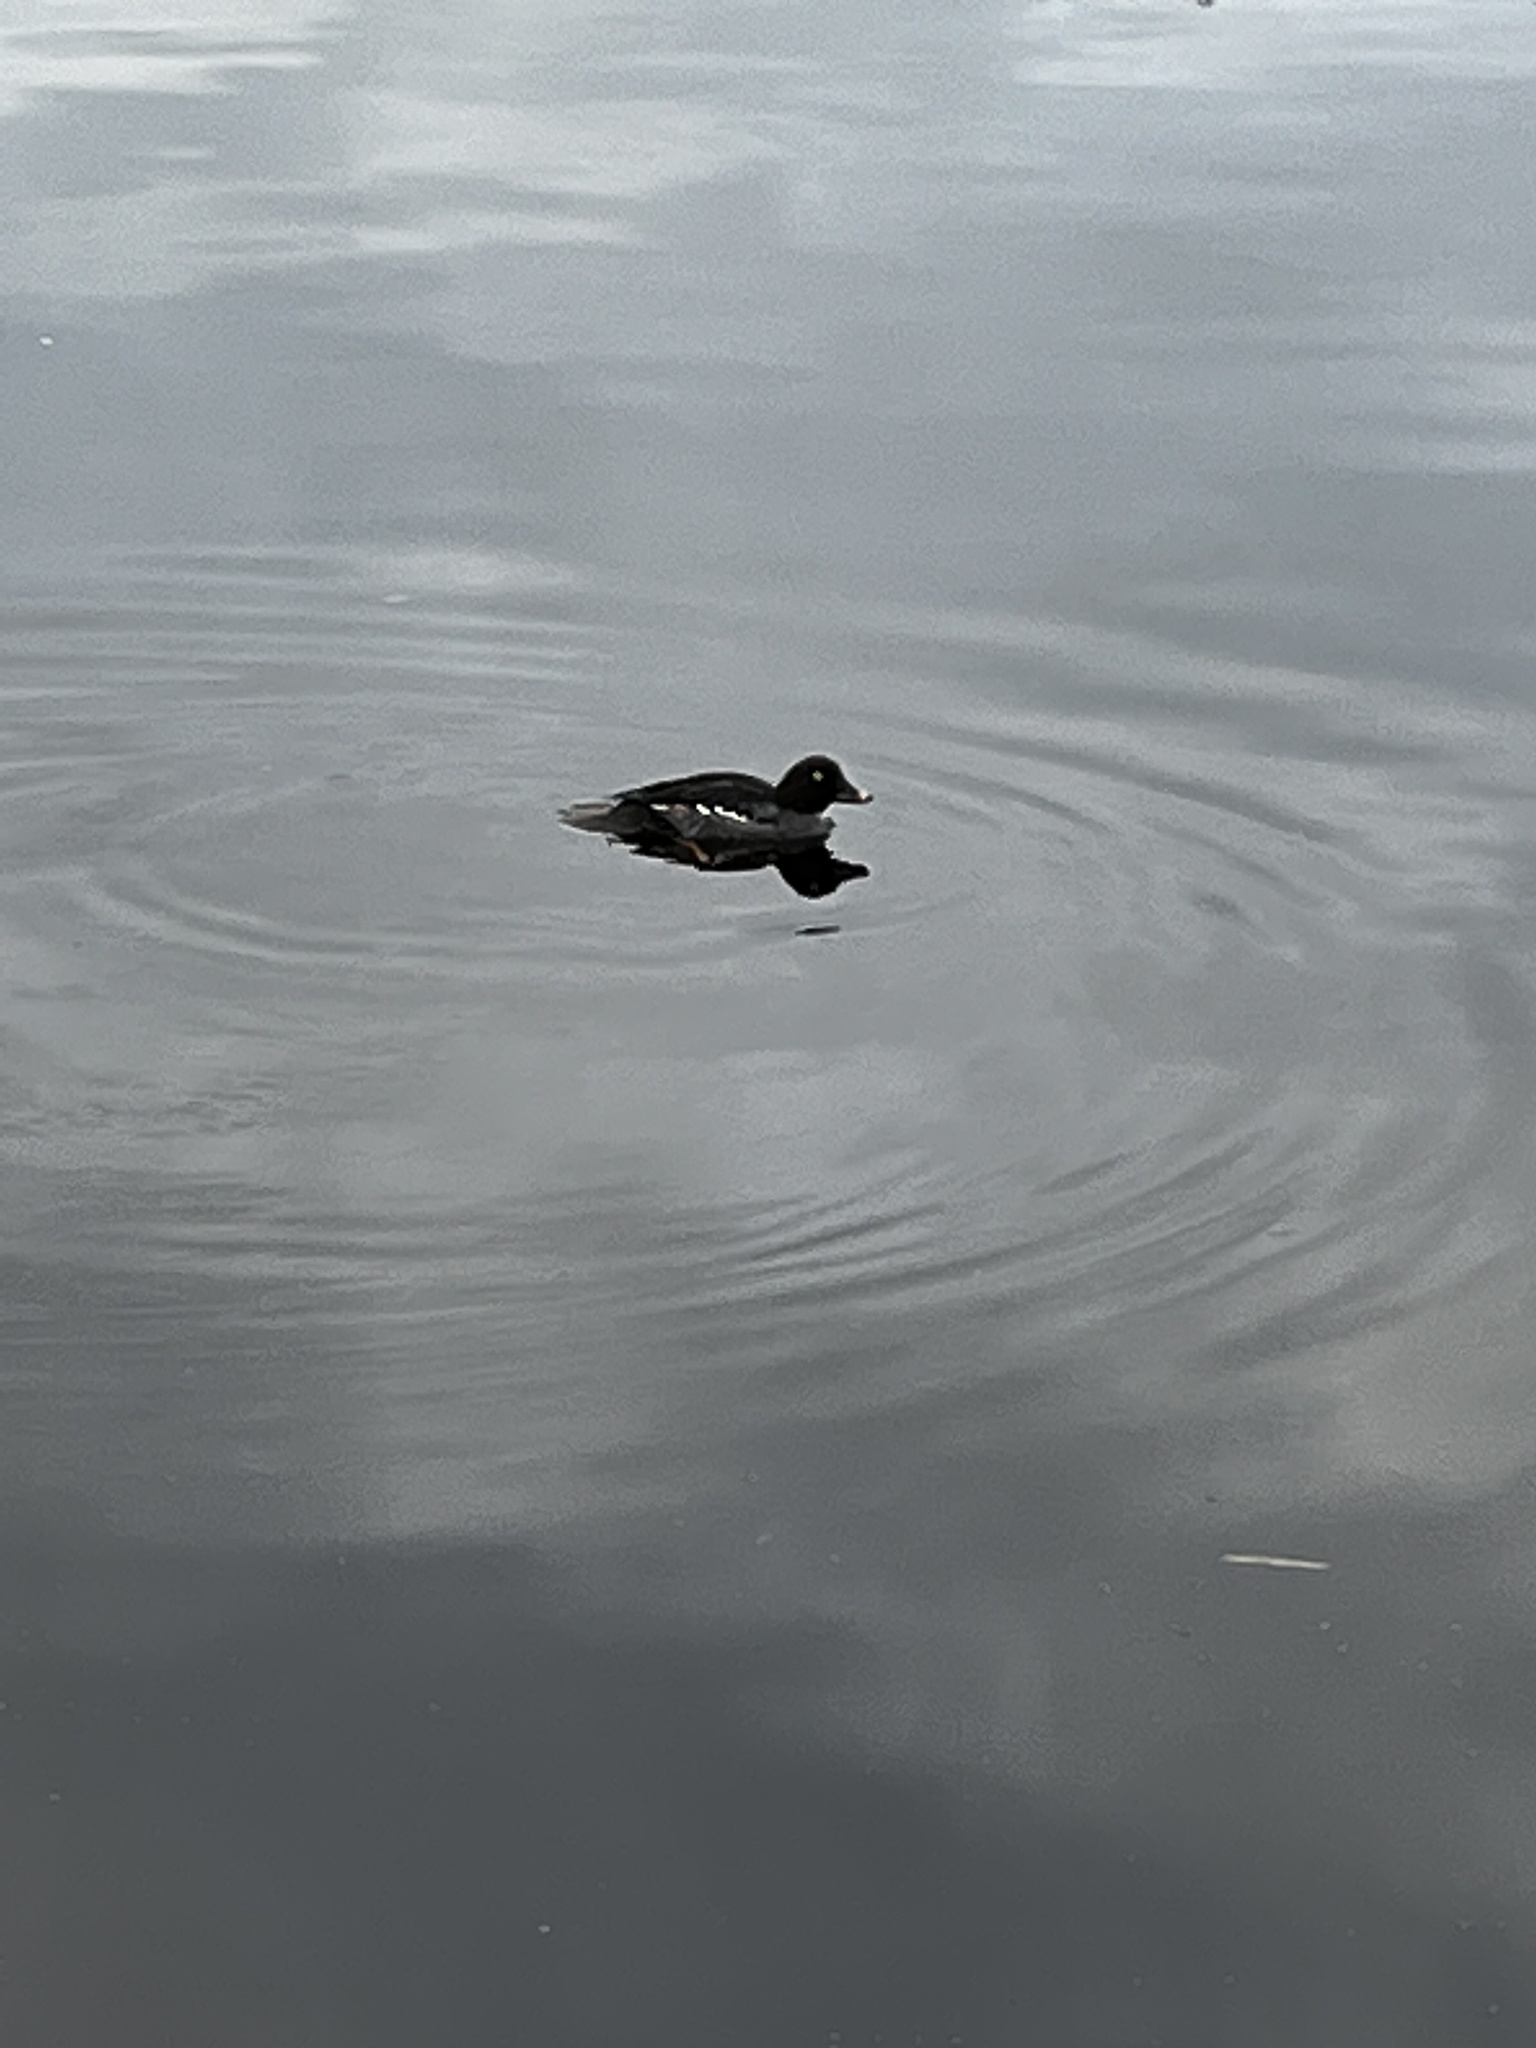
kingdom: Animalia
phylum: Chordata
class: Aves
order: Anseriformes
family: Anatidae
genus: Melanitta
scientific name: Melanitta deglandi
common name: White-winged scoter
